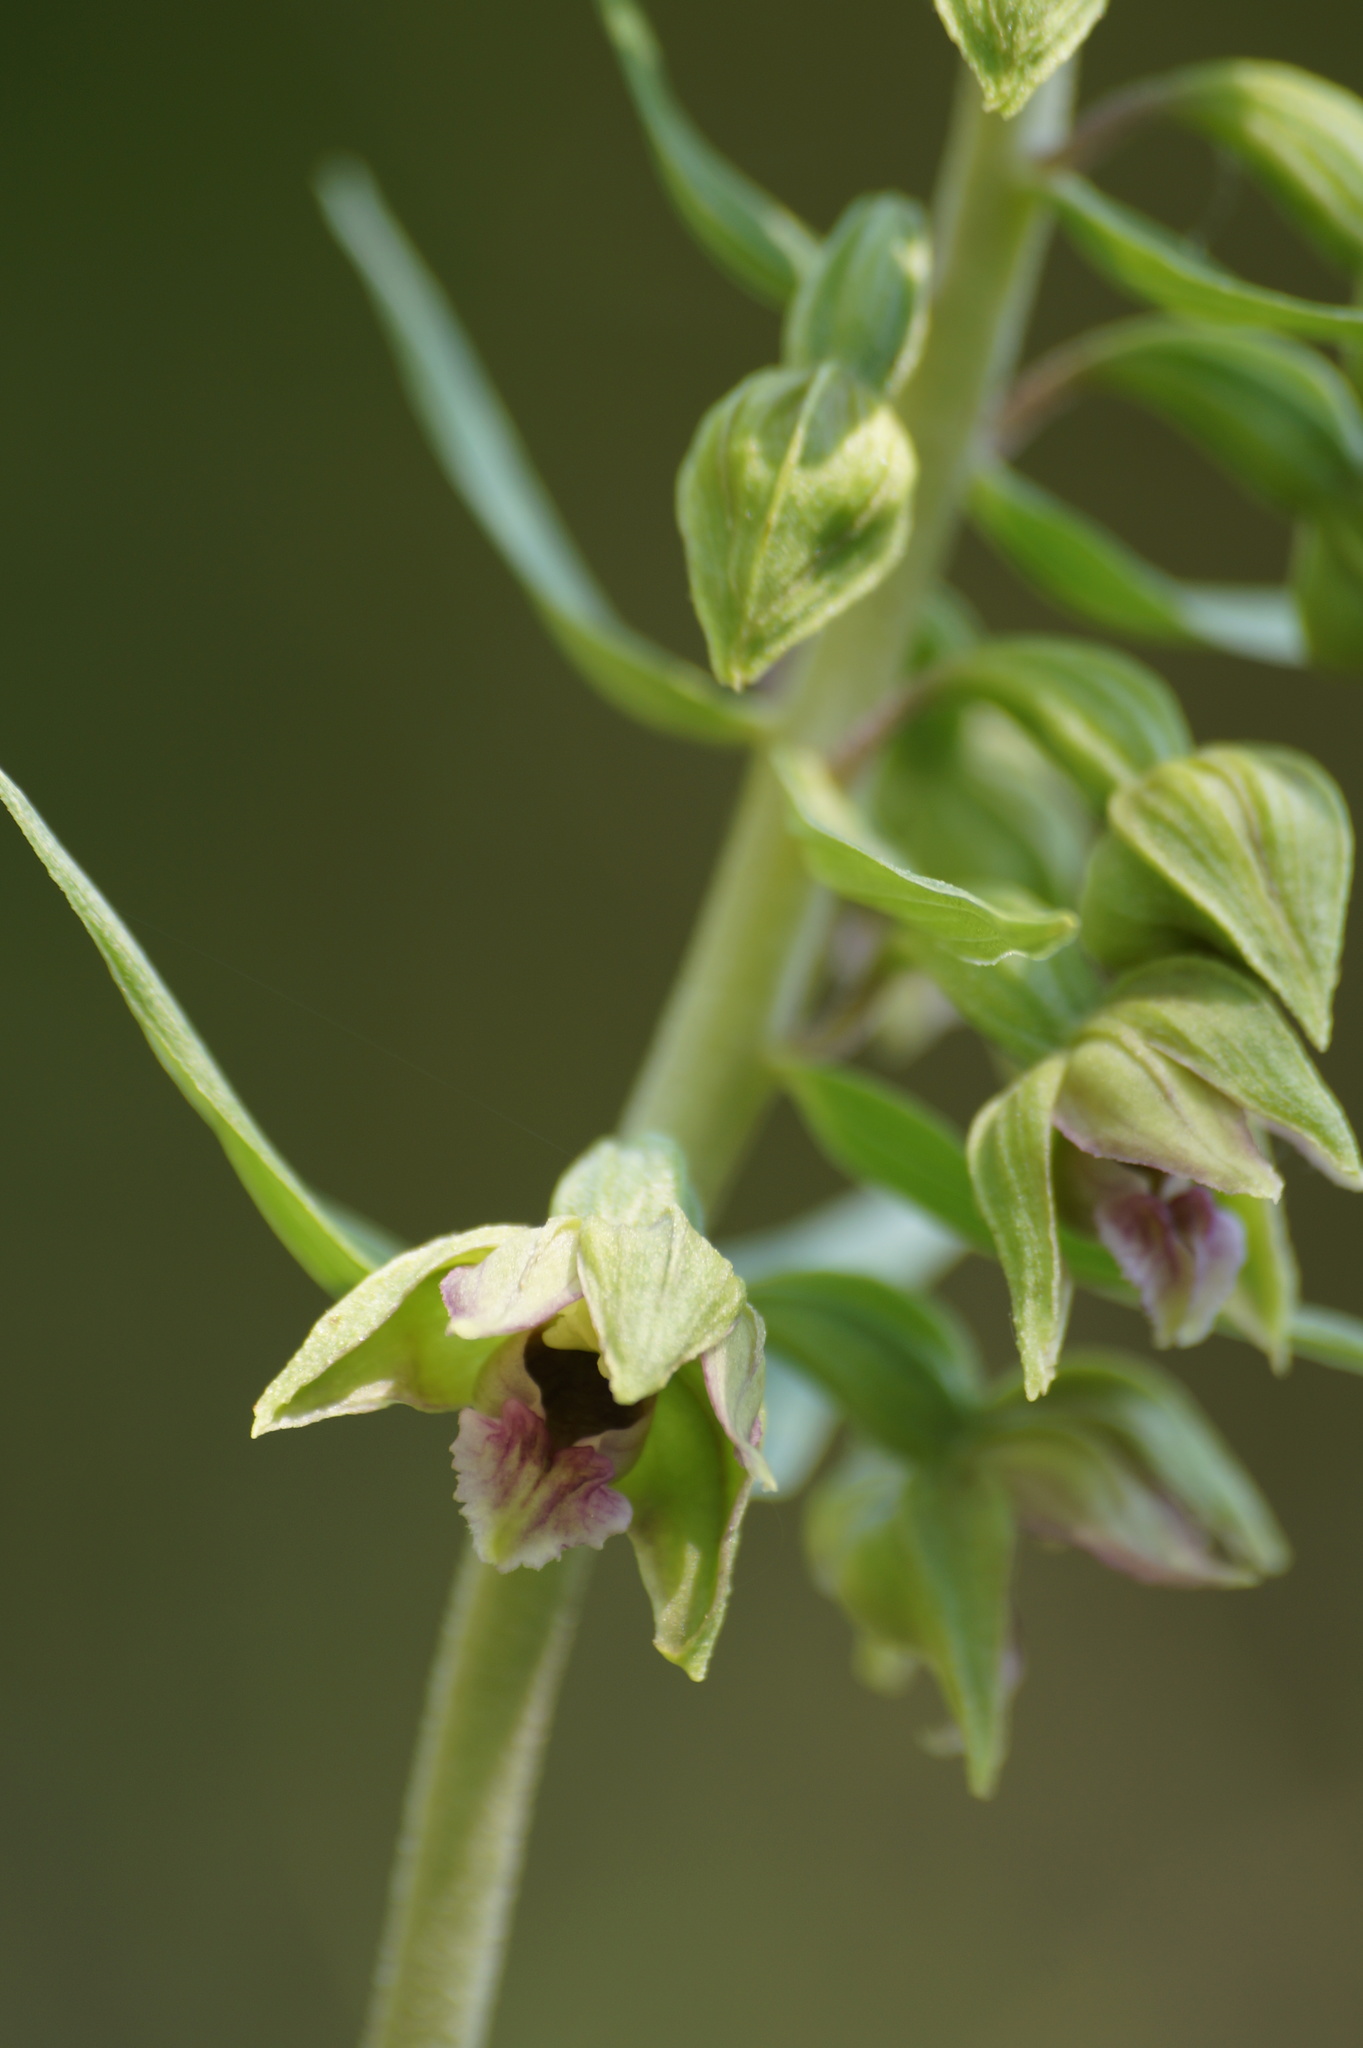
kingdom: Plantae
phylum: Tracheophyta
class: Liliopsida
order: Asparagales
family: Orchidaceae
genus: Epipactis
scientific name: Epipactis helleborine
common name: Broad-leaved helleborine
